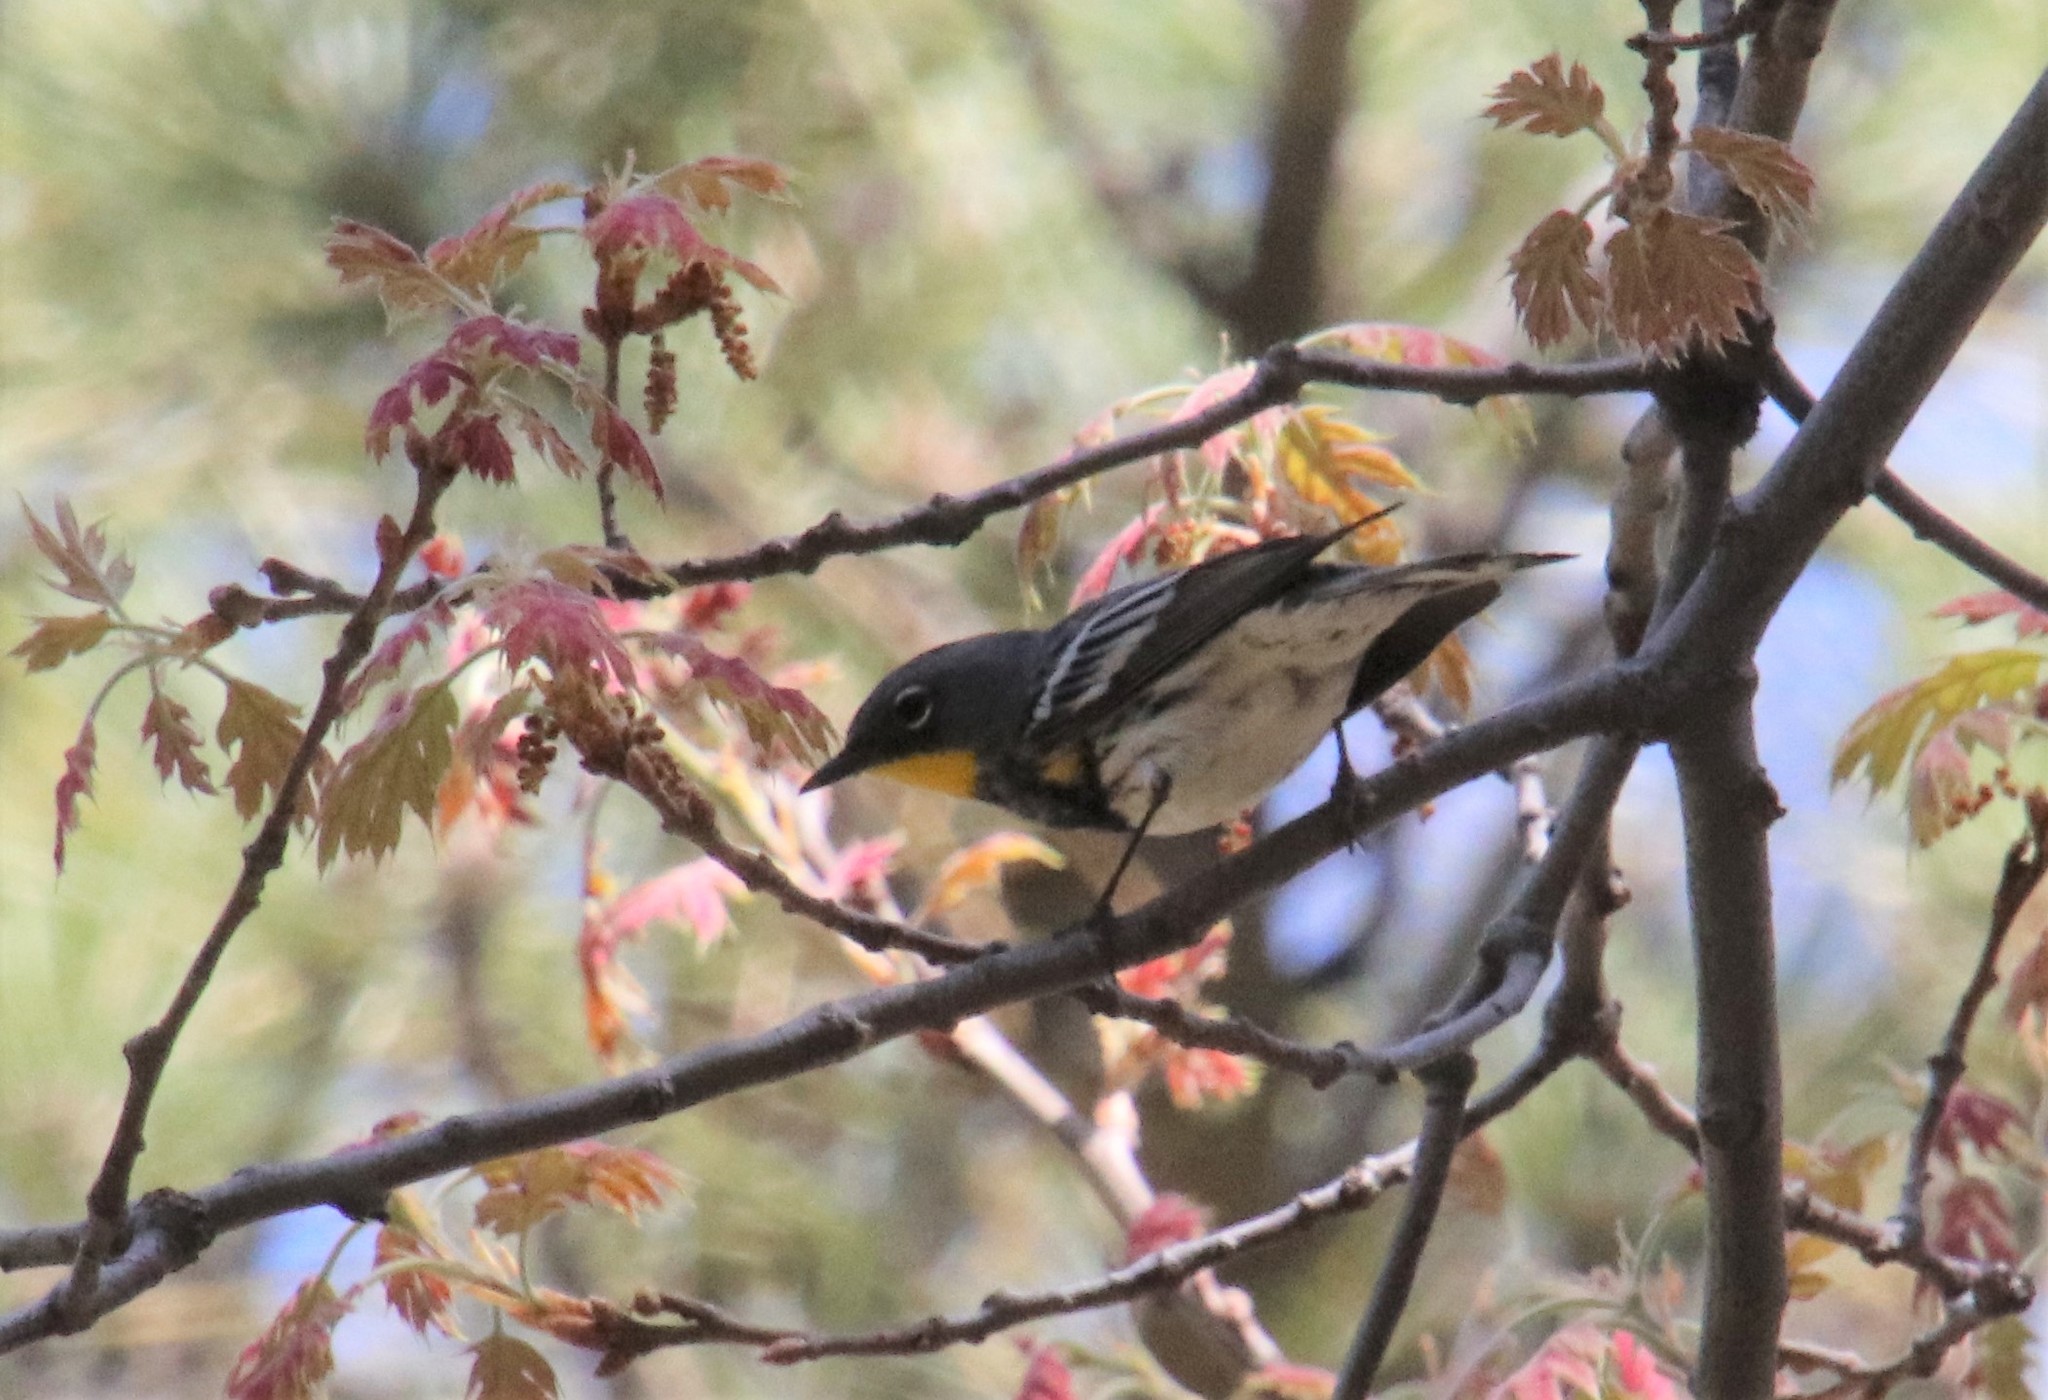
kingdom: Animalia
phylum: Chordata
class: Aves
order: Passeriformes
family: Parulidae
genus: Setophaga
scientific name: Setophaga auduboni
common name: Audubon's warbler
